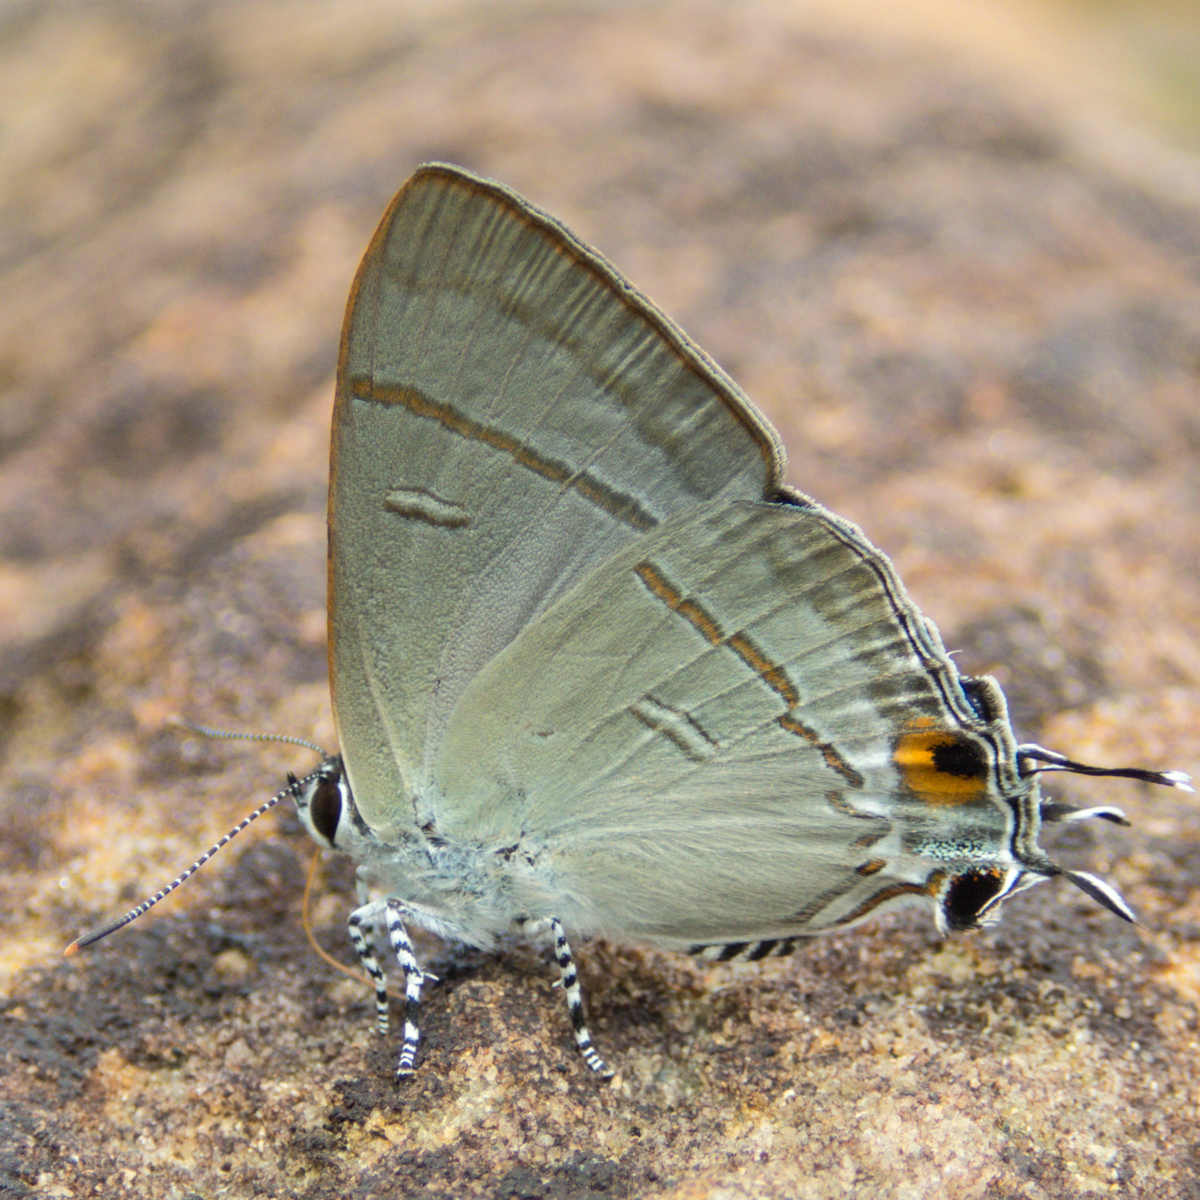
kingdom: Animalia
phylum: Arthropoda
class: Insecta
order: Lepidoptera
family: Lycaenidae
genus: Hypolycaena
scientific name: Hypolycaena erylus
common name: Common tit
